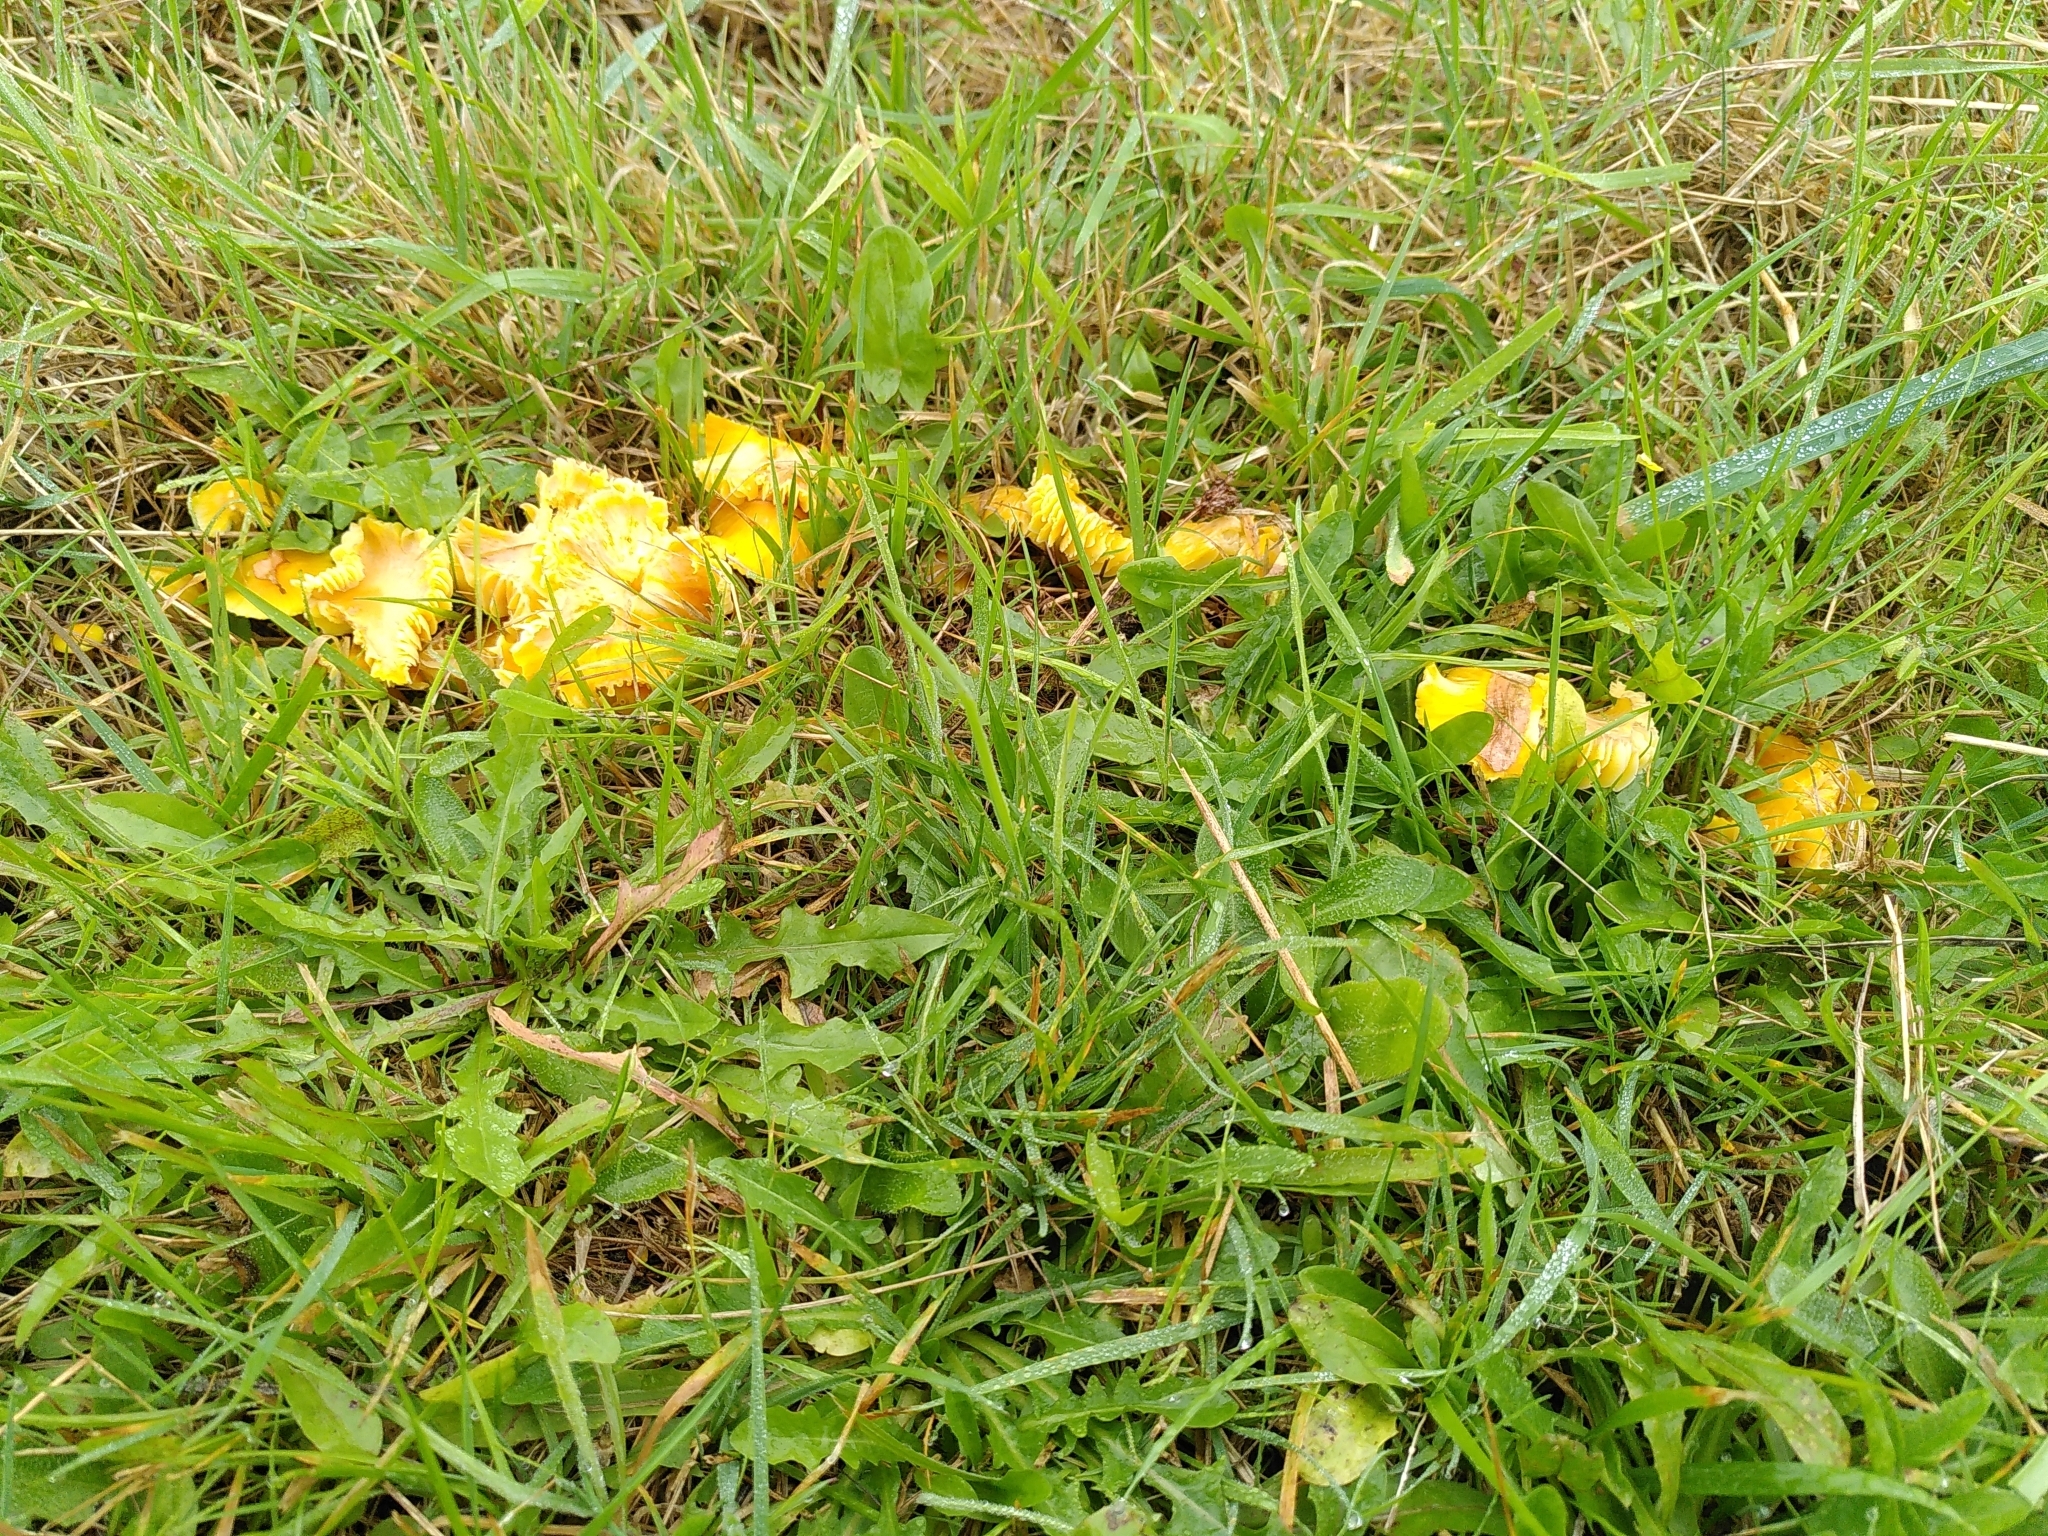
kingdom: Fungi
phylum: Basidiomycota
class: Agaricomycetes
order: Agaricales
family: Hygrophoraceae
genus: Hygrocybe
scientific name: Hygrocybe ceracea
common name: Butter waxcap
